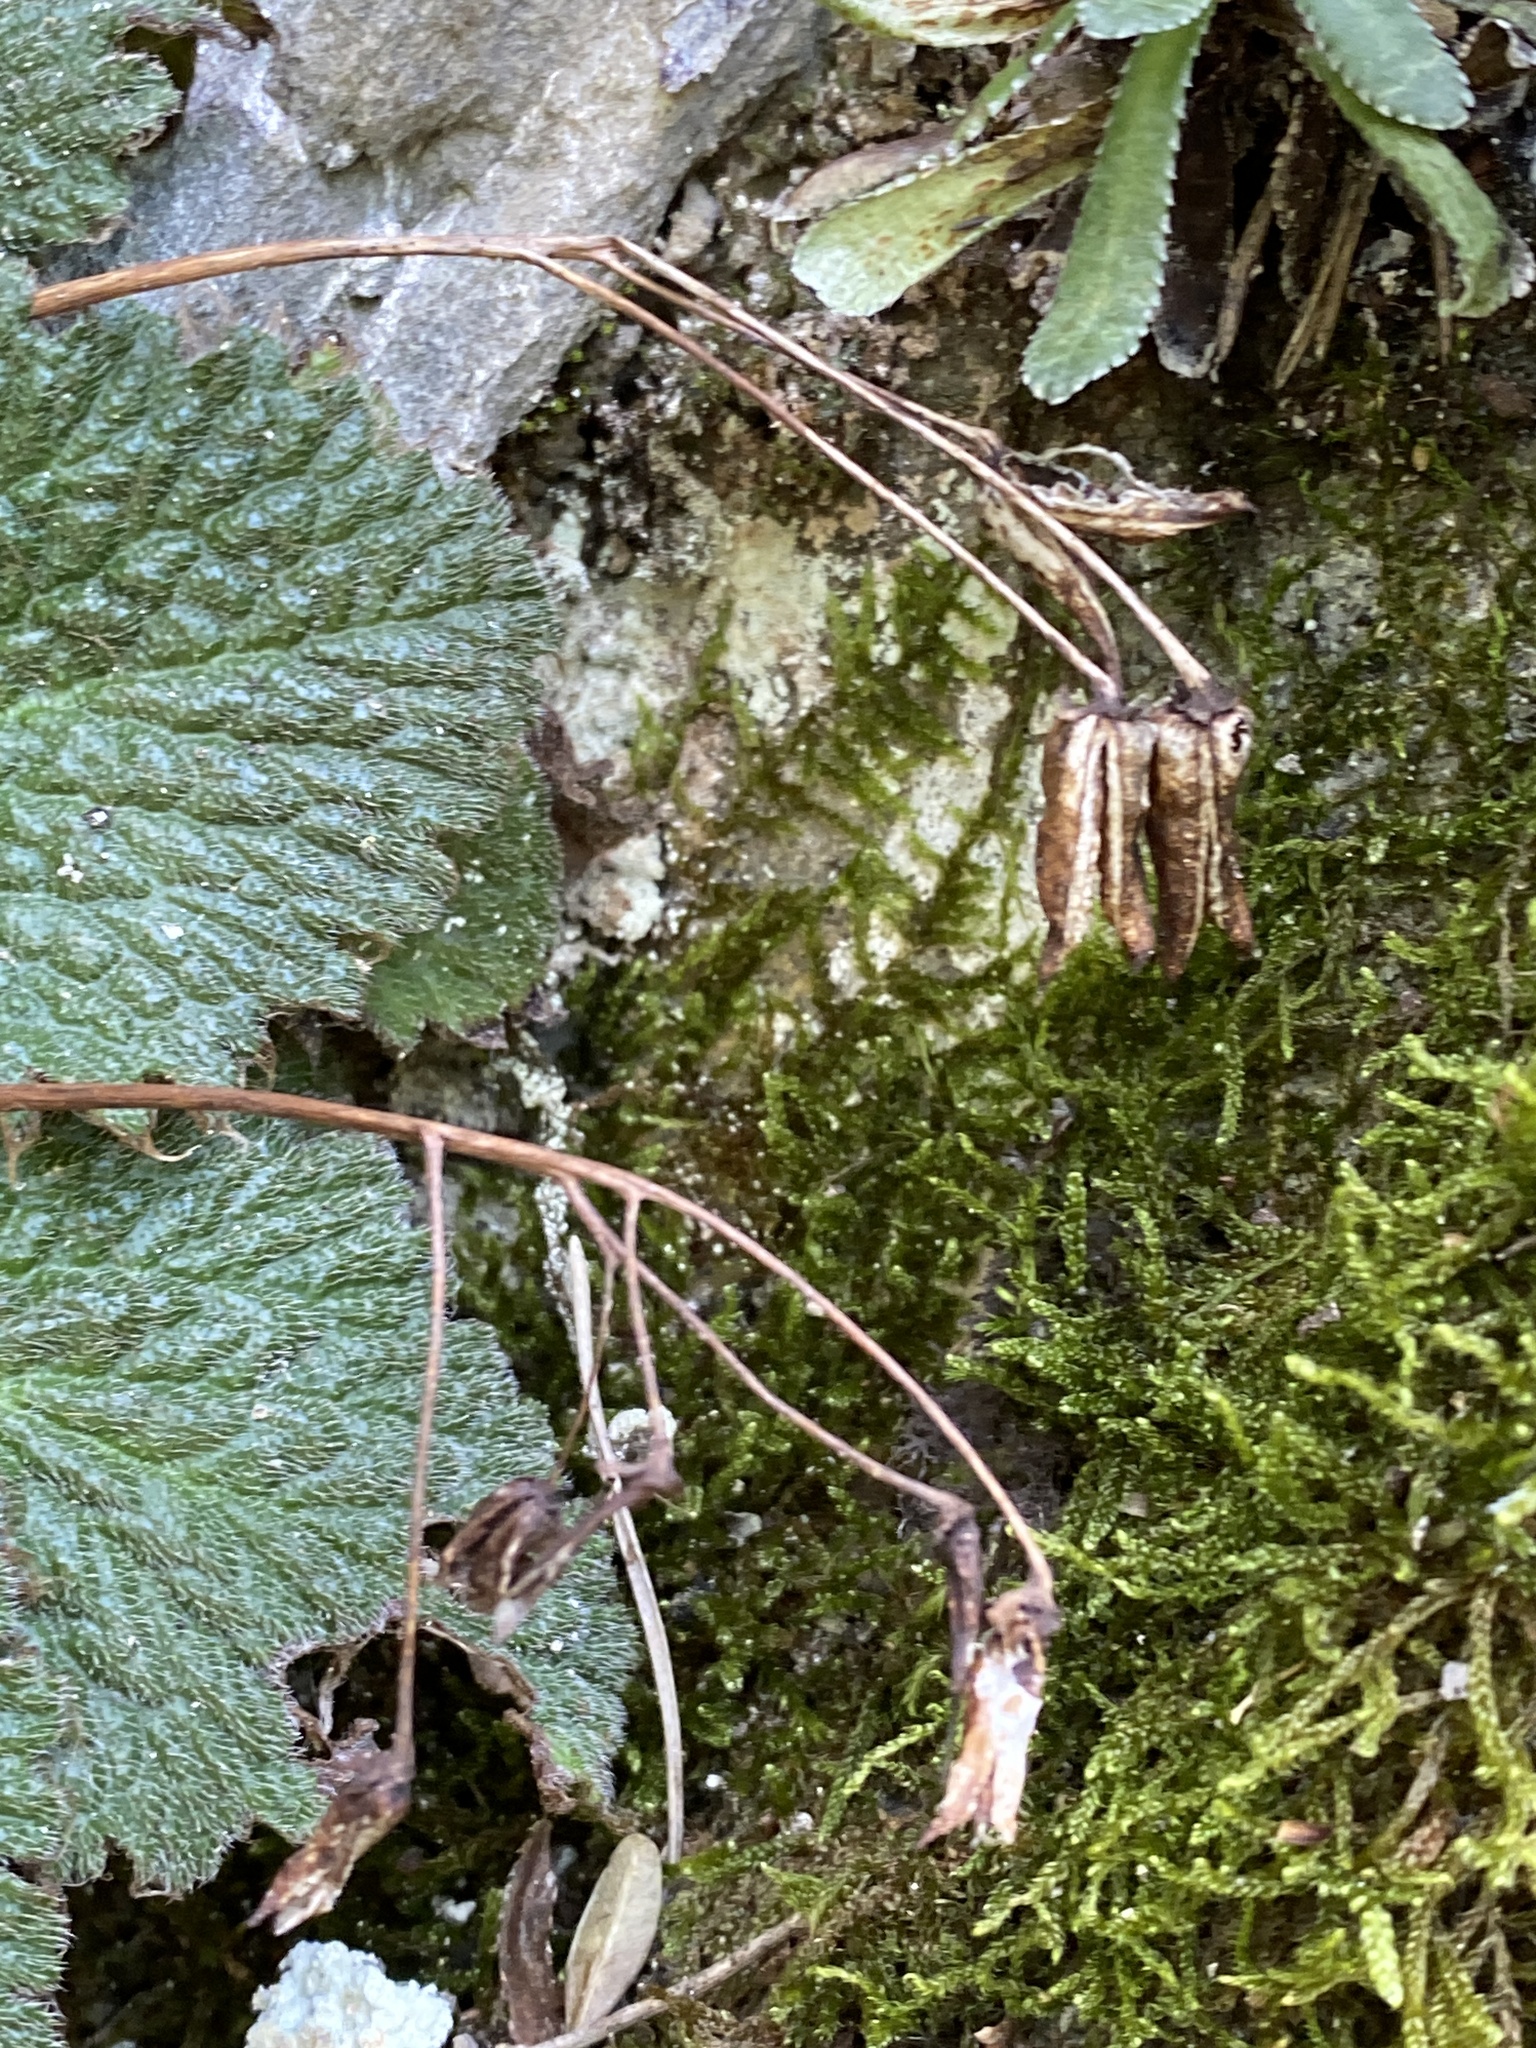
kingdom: Plantae
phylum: Tracheophyta
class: Magnoliopsida
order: Lamiales
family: Gesneriaceae
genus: Ramonda
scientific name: Ramonda myconi
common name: Pyrenean-violet
